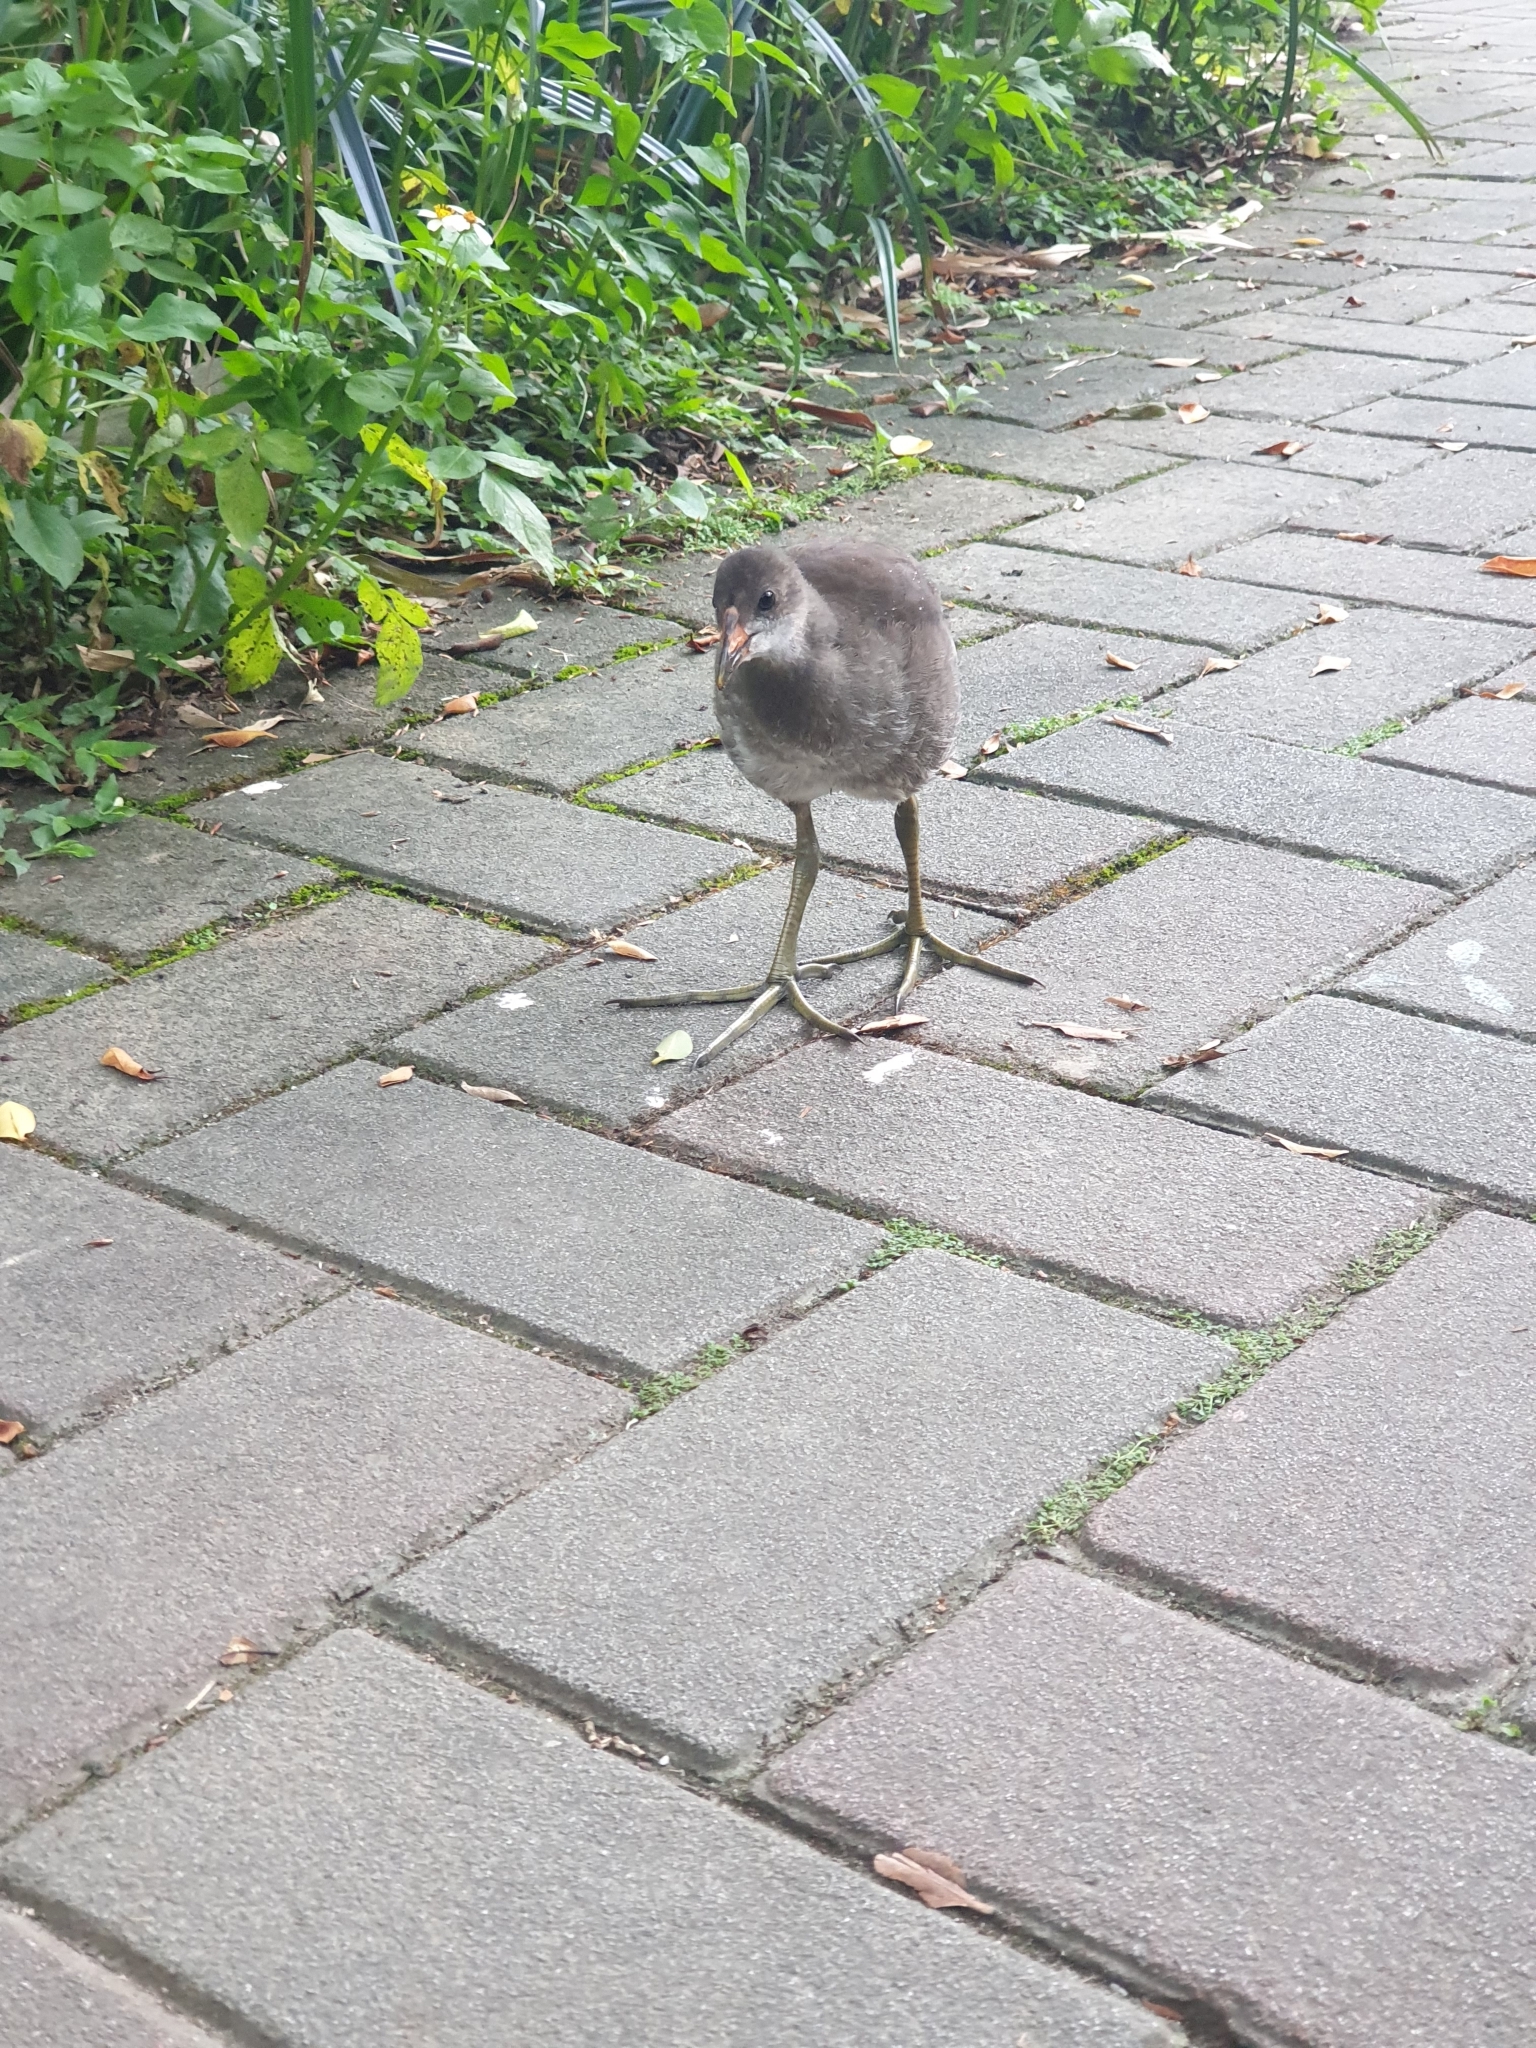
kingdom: Animalia
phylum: Chordata
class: Aves
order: Gruiformes
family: Rallidae
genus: Gallinula
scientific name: Gallinula chloropus
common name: Common moorhen
